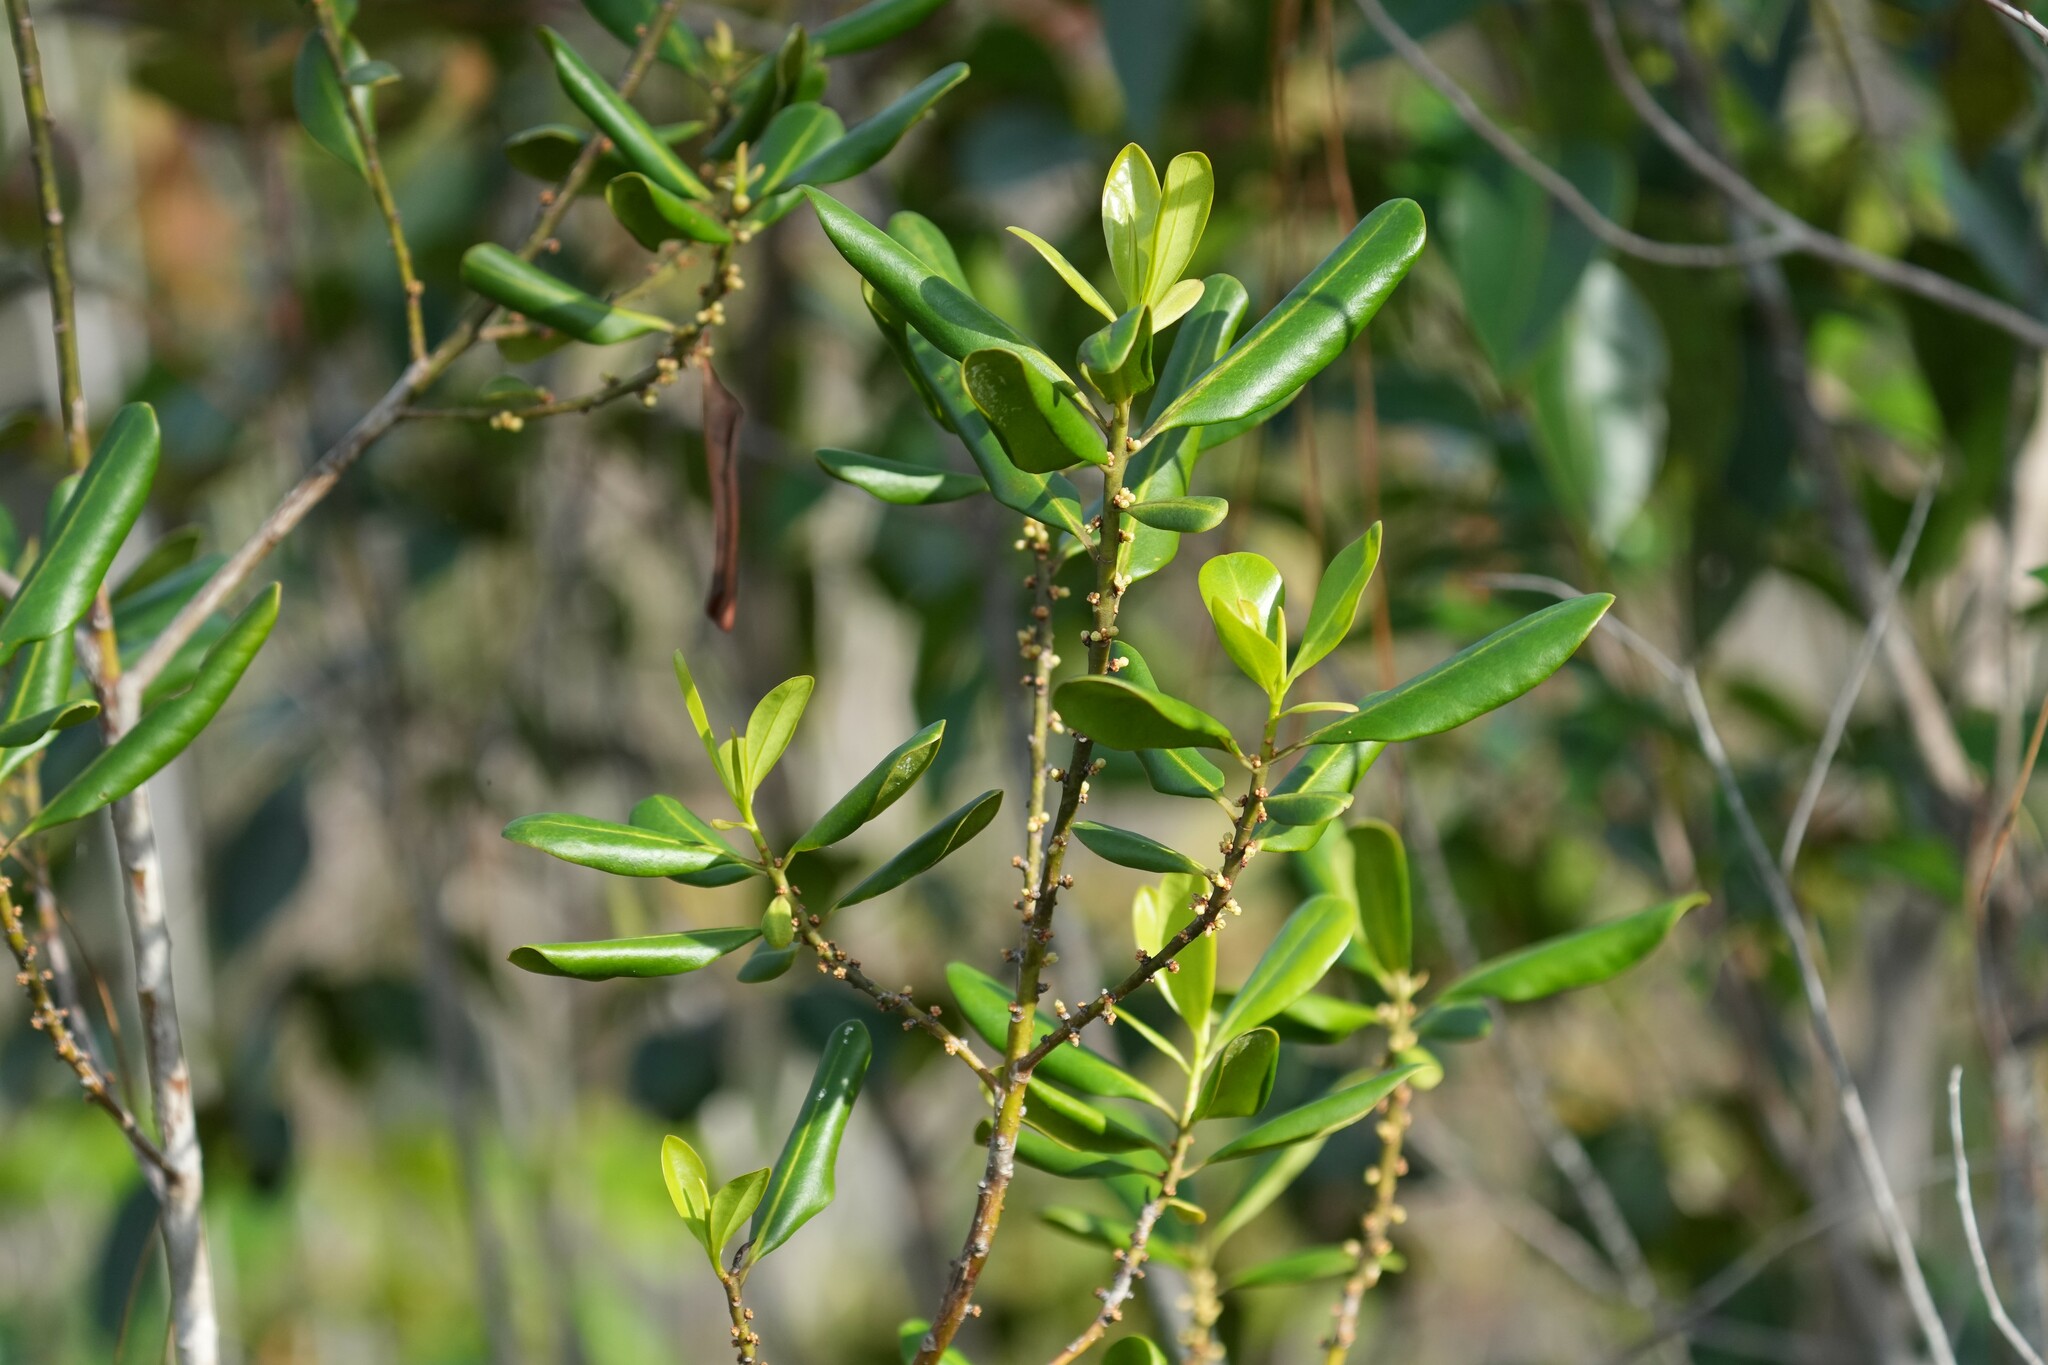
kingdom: Plantae
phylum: Tracheophyta
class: Magnoliopsida
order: Ericales
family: Primulaceae
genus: Myrsine
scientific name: Myrsine floridana
